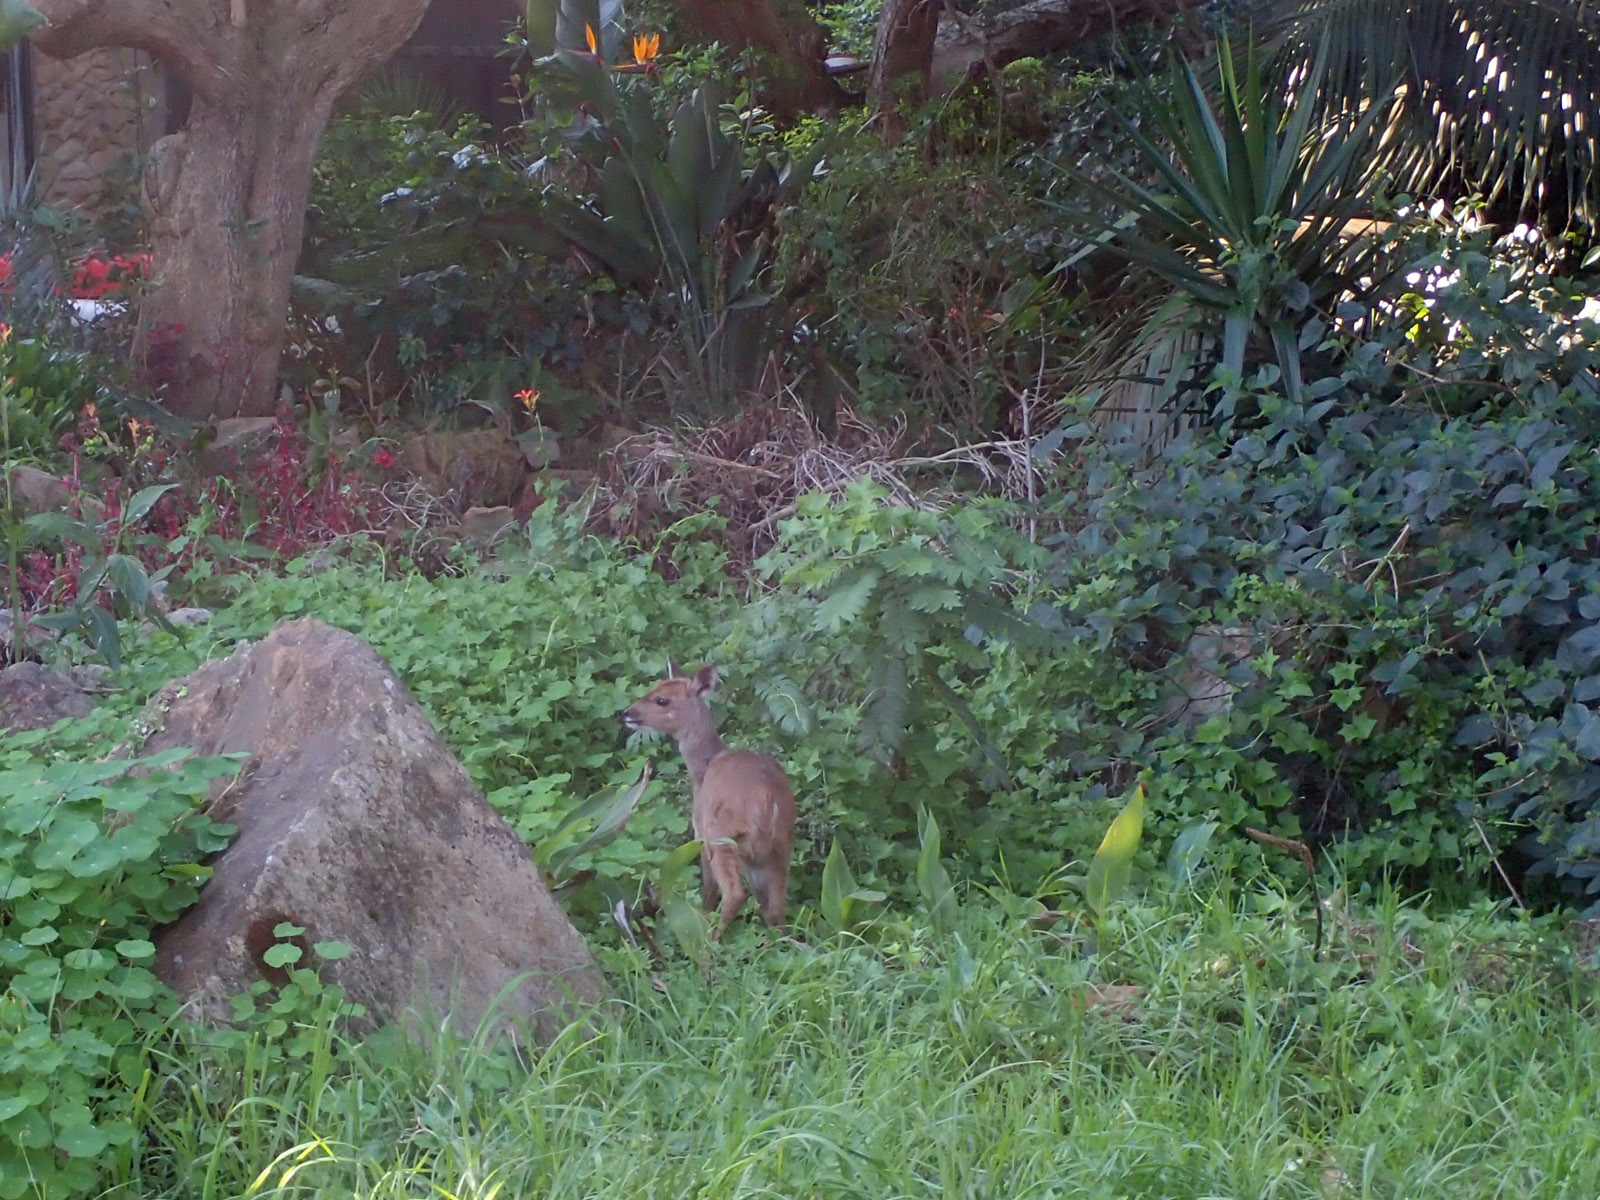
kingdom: Animalia
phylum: Chordata
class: Mammalia
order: Artiodactyla
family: Bovidae
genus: Tragelaphus
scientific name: Tragelaphus scriptus
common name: Bushbuck
